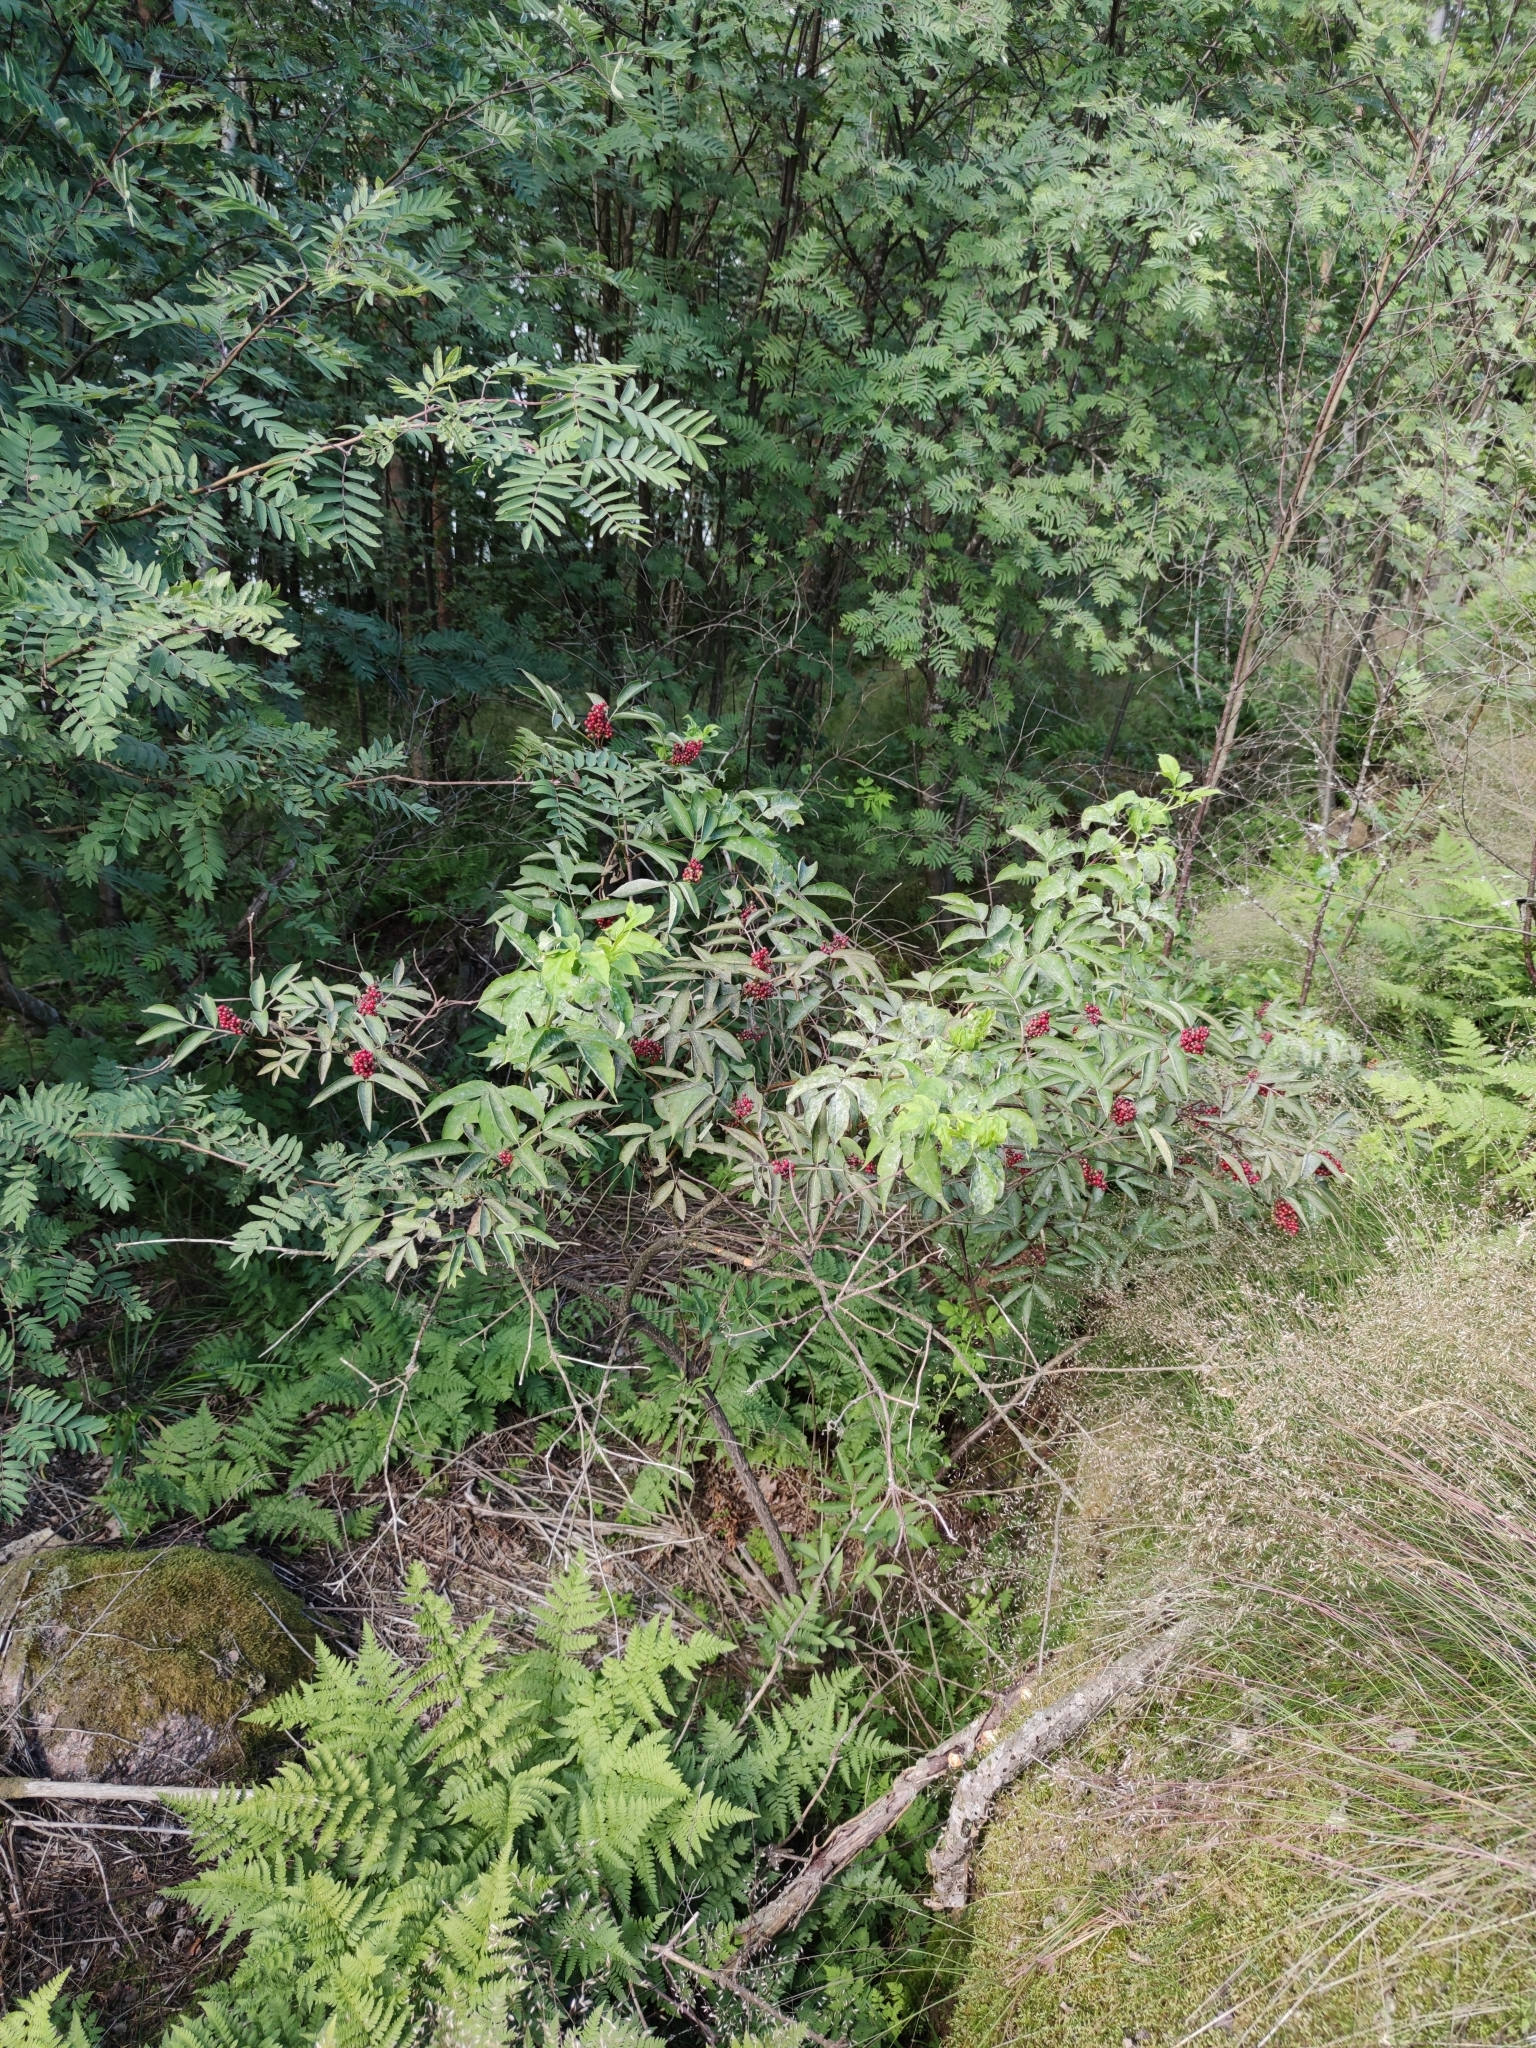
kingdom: Plantae
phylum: Tracheophyta
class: Magnoliopsida
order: Dipsacales
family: Viburnaceae
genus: Sambucus
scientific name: Sambucus racemosa
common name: Red-berried elder
